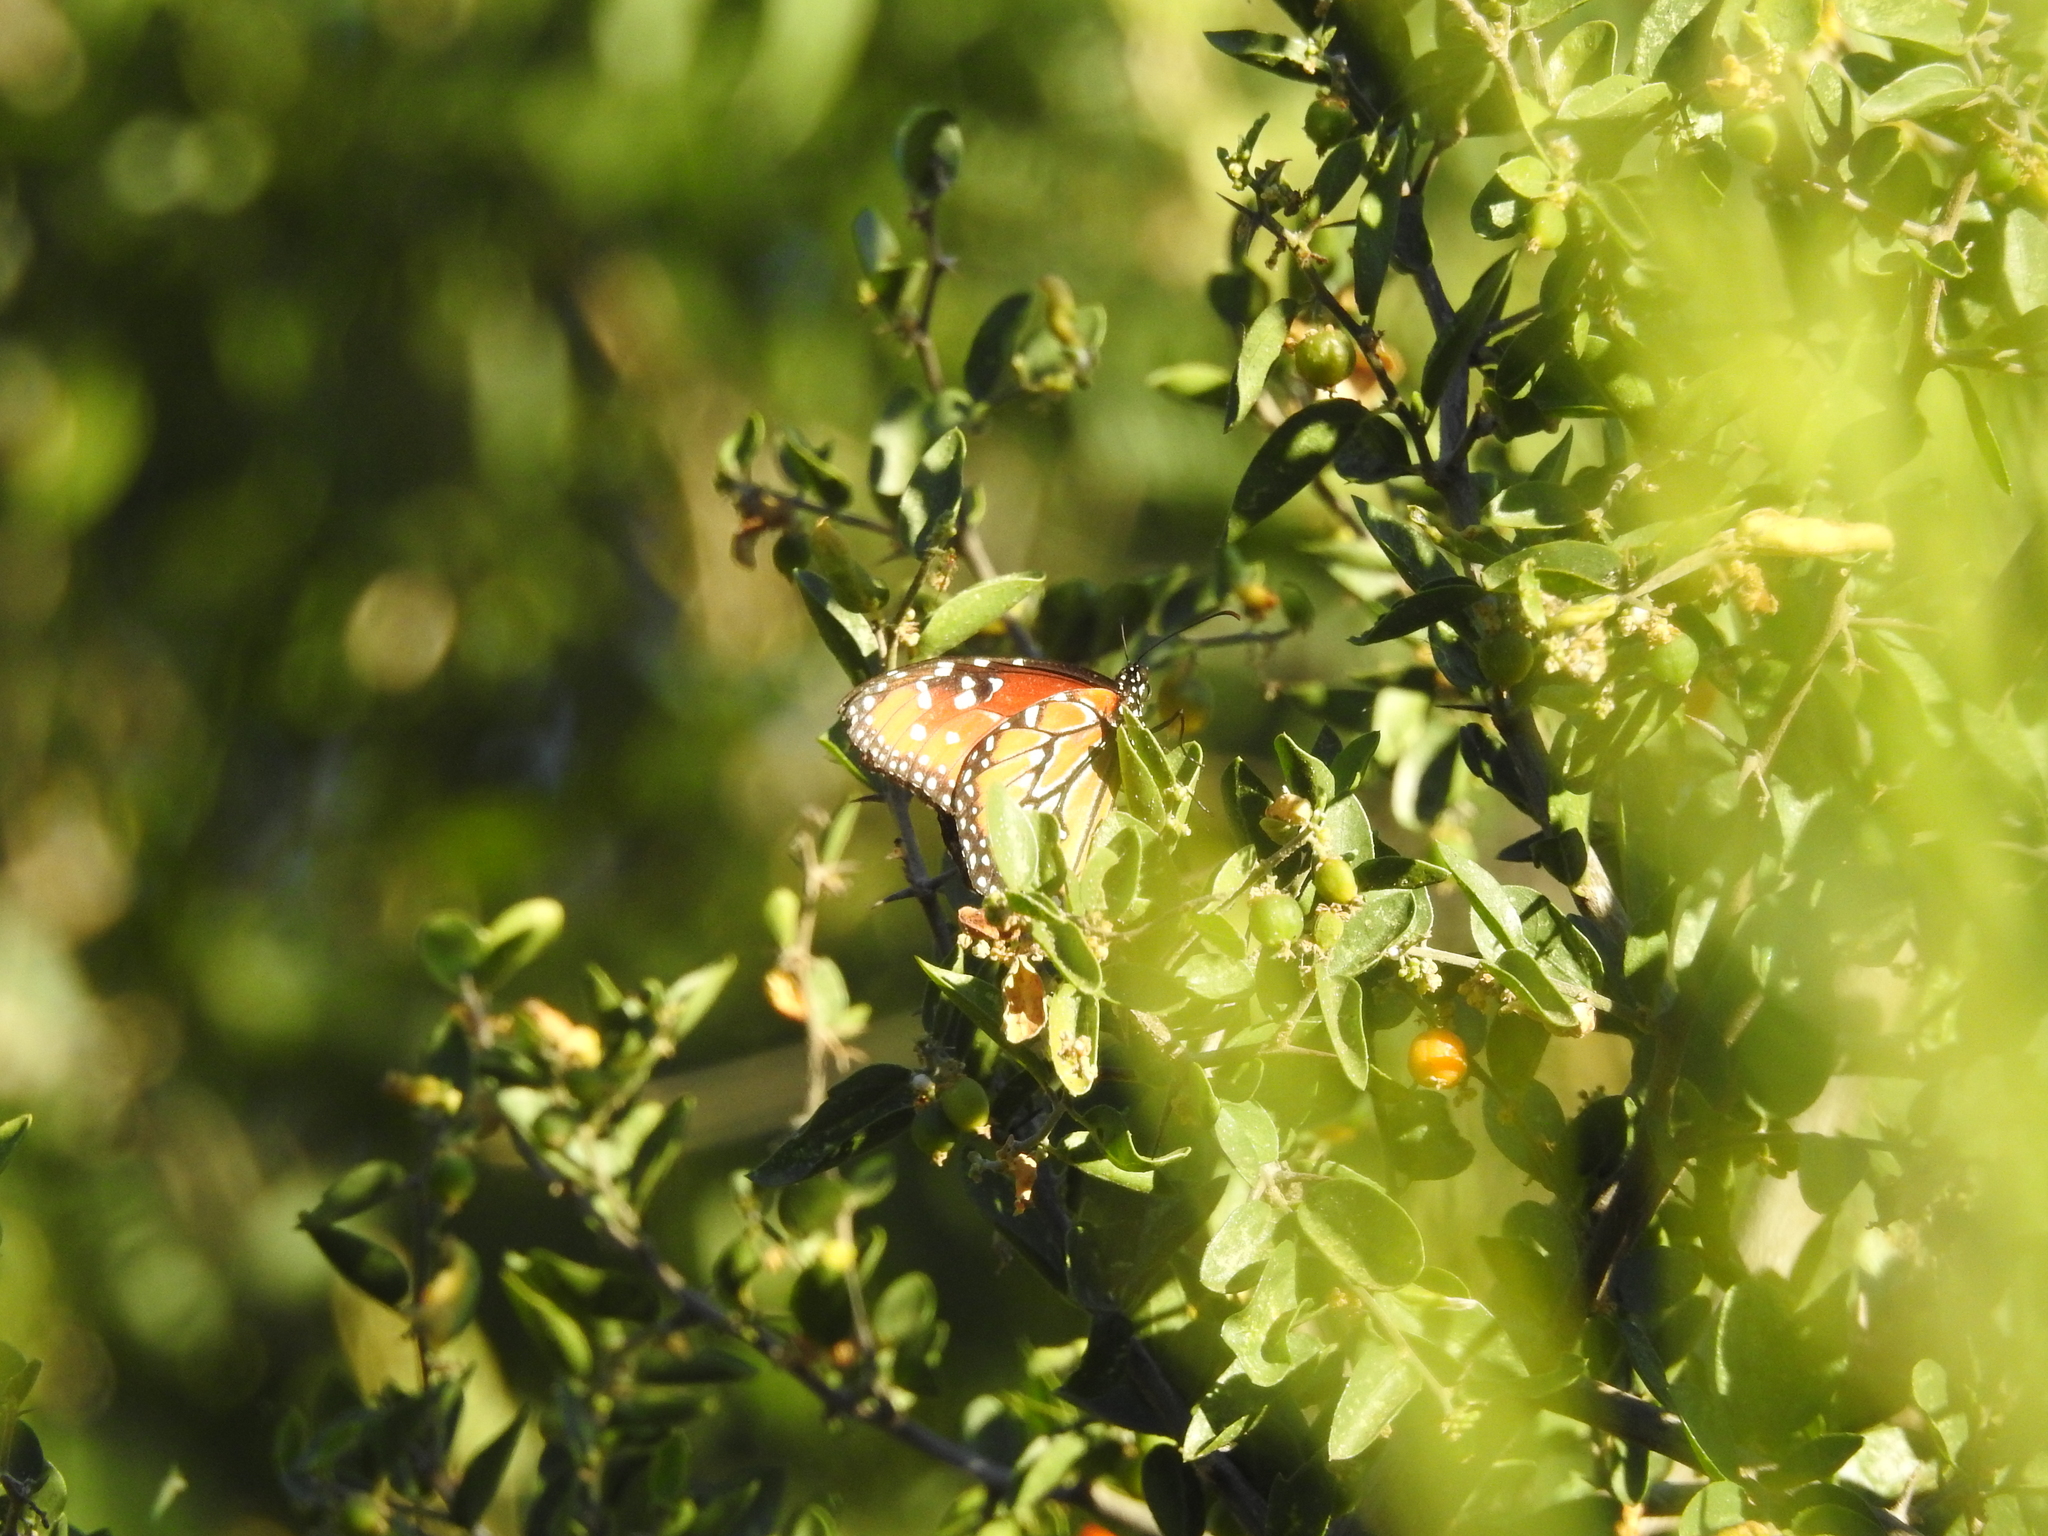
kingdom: Animalia
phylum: Arthropoda
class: Insecta
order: Lepidoptera
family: Nymphalidae
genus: Danaus
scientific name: Danaus gilippus
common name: Queen
